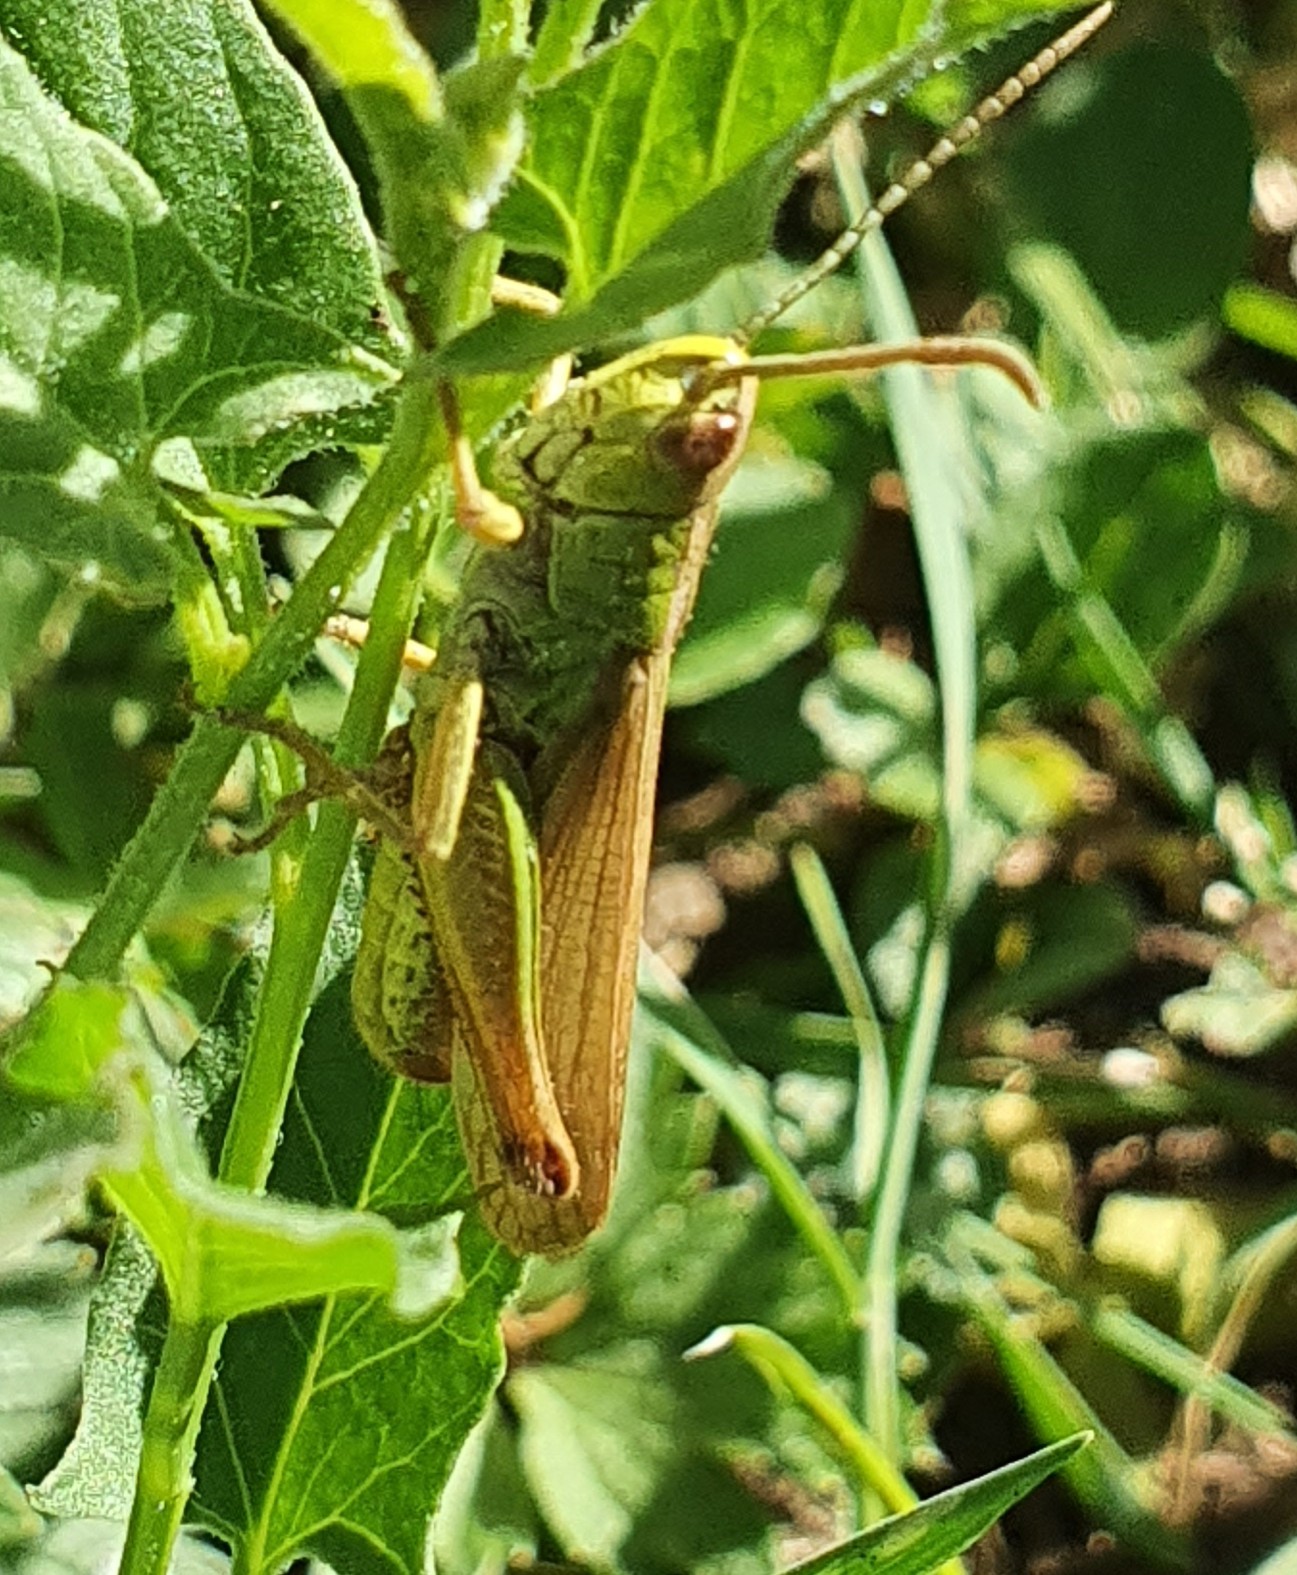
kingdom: Animalia
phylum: Arthropoda
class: Insecta
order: Orthoptera
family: Acrididae
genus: Pseudochorthippus
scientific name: Pseudochorthippus parallelus
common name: Meadow grasshopper
